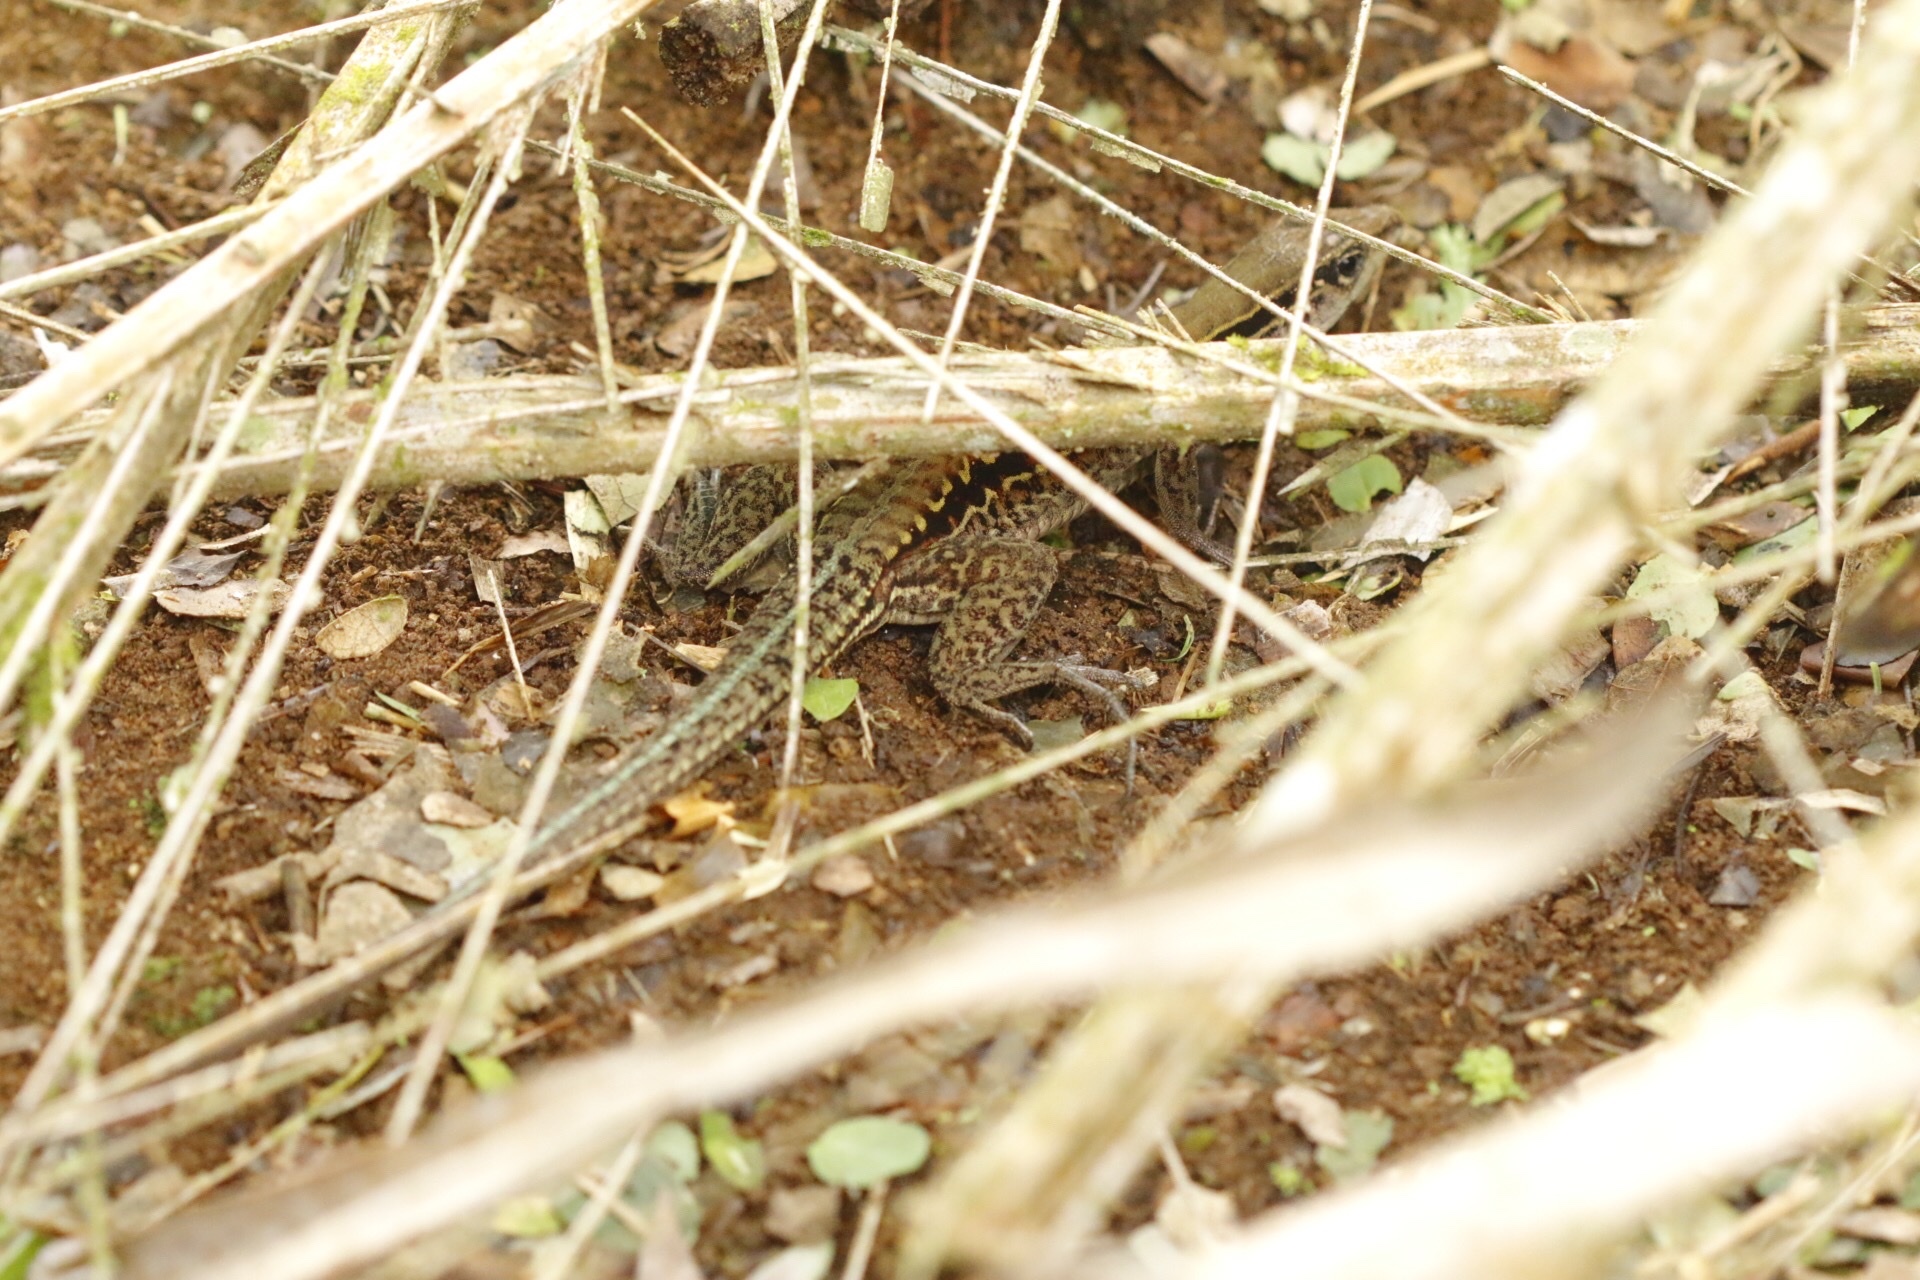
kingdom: Animalia
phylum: Chordata
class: Squamata
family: Teiidae
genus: Holcosus
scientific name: Holcosus septemlineatus
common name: Seven-lined ameiva
